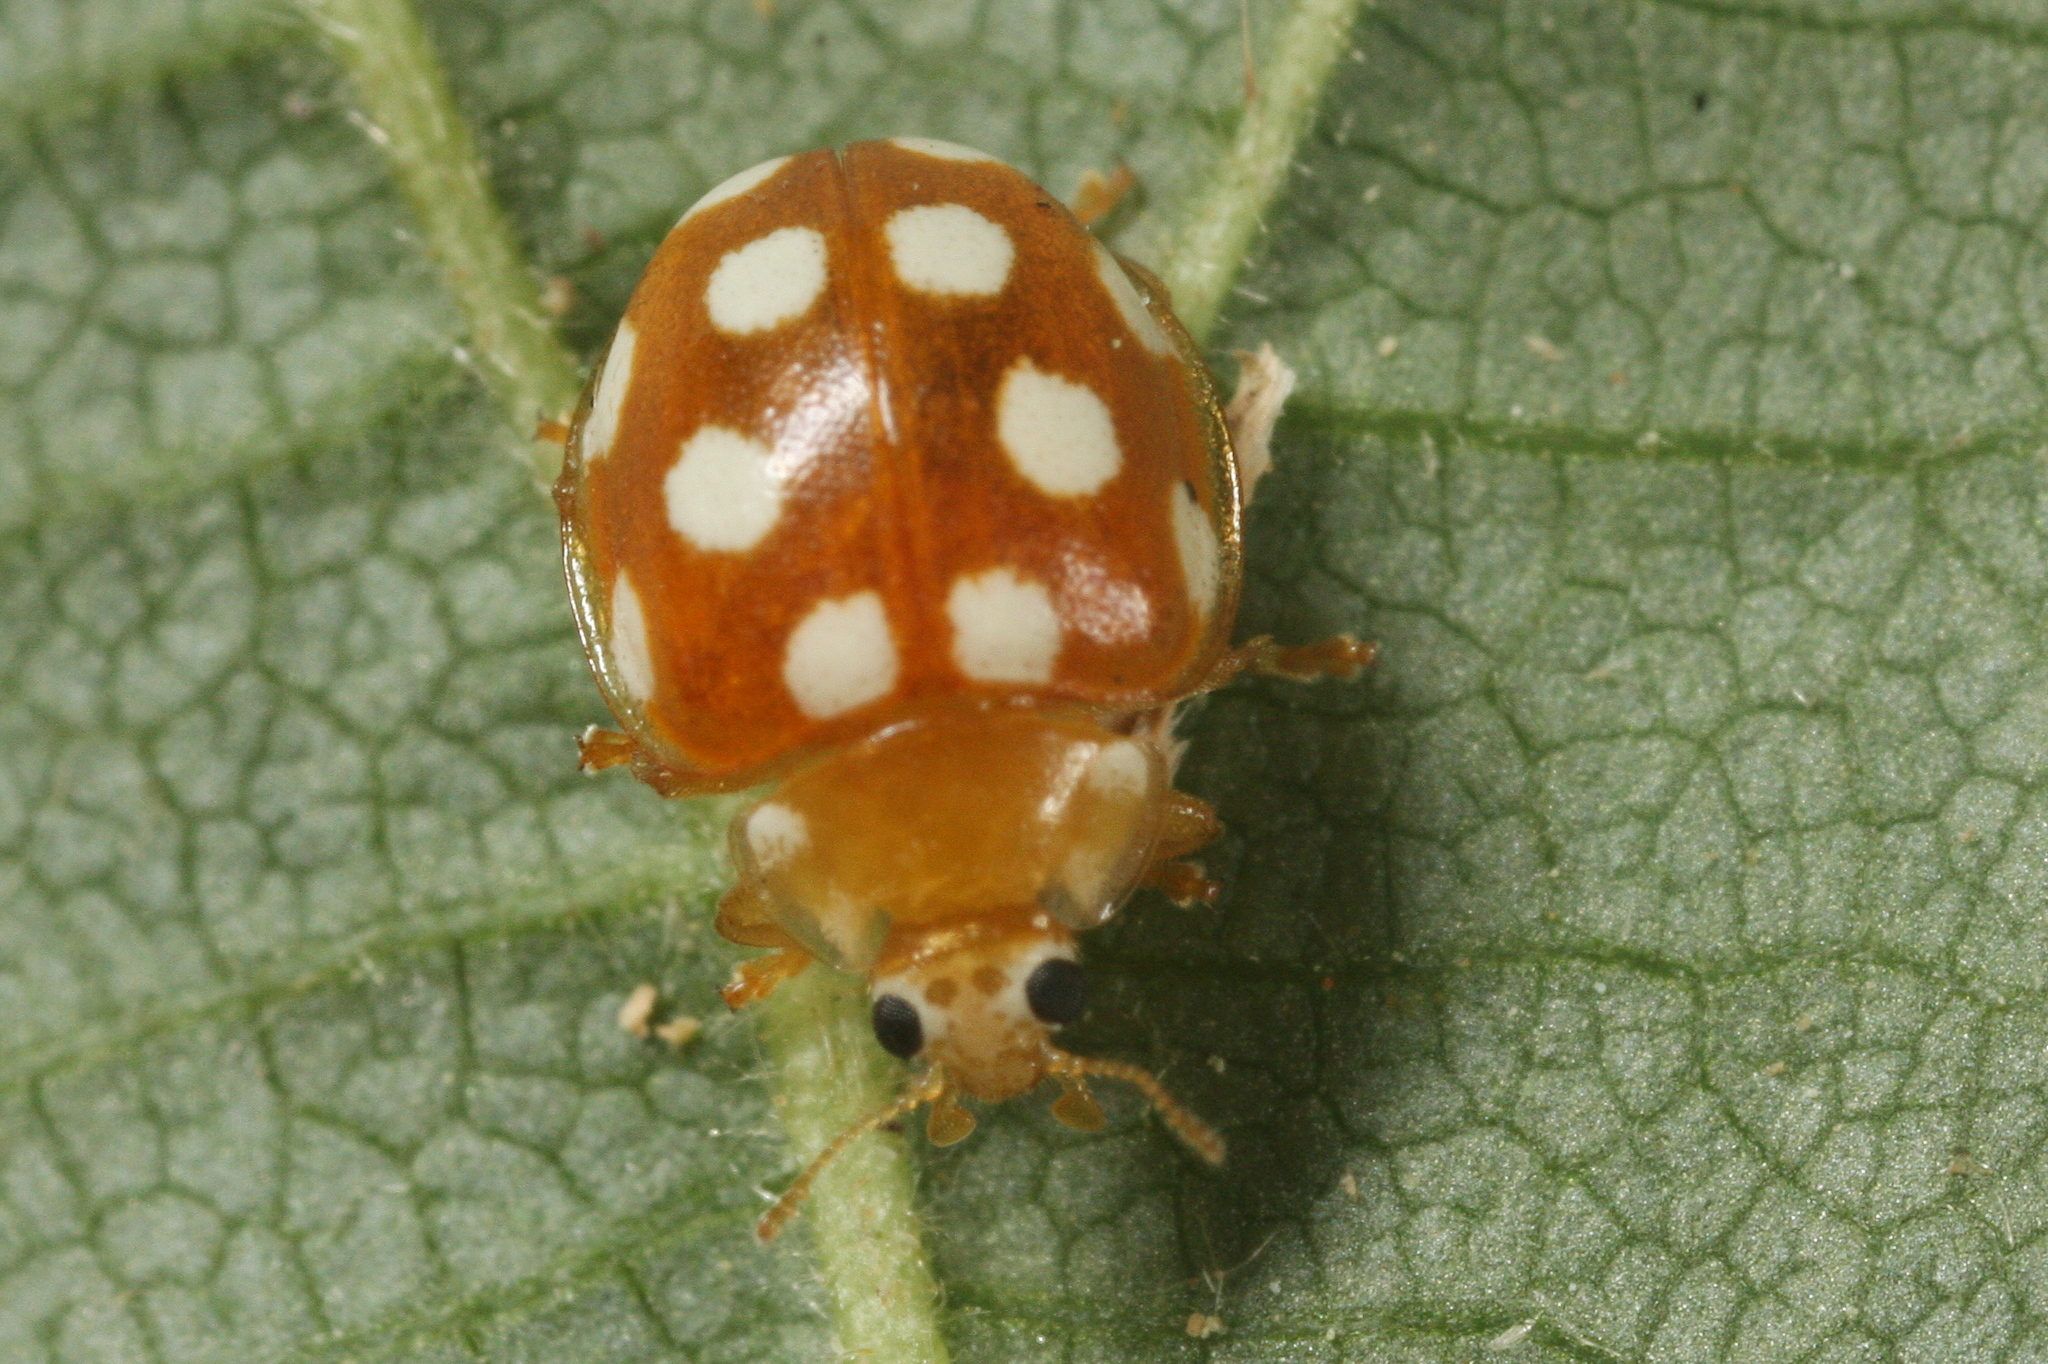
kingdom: Animalia
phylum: Arthropoda
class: Insecta
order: Coleoptera
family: Coccinellidae
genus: Vibidia
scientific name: Vibidia duodecimguttata
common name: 12-spot ladybird
